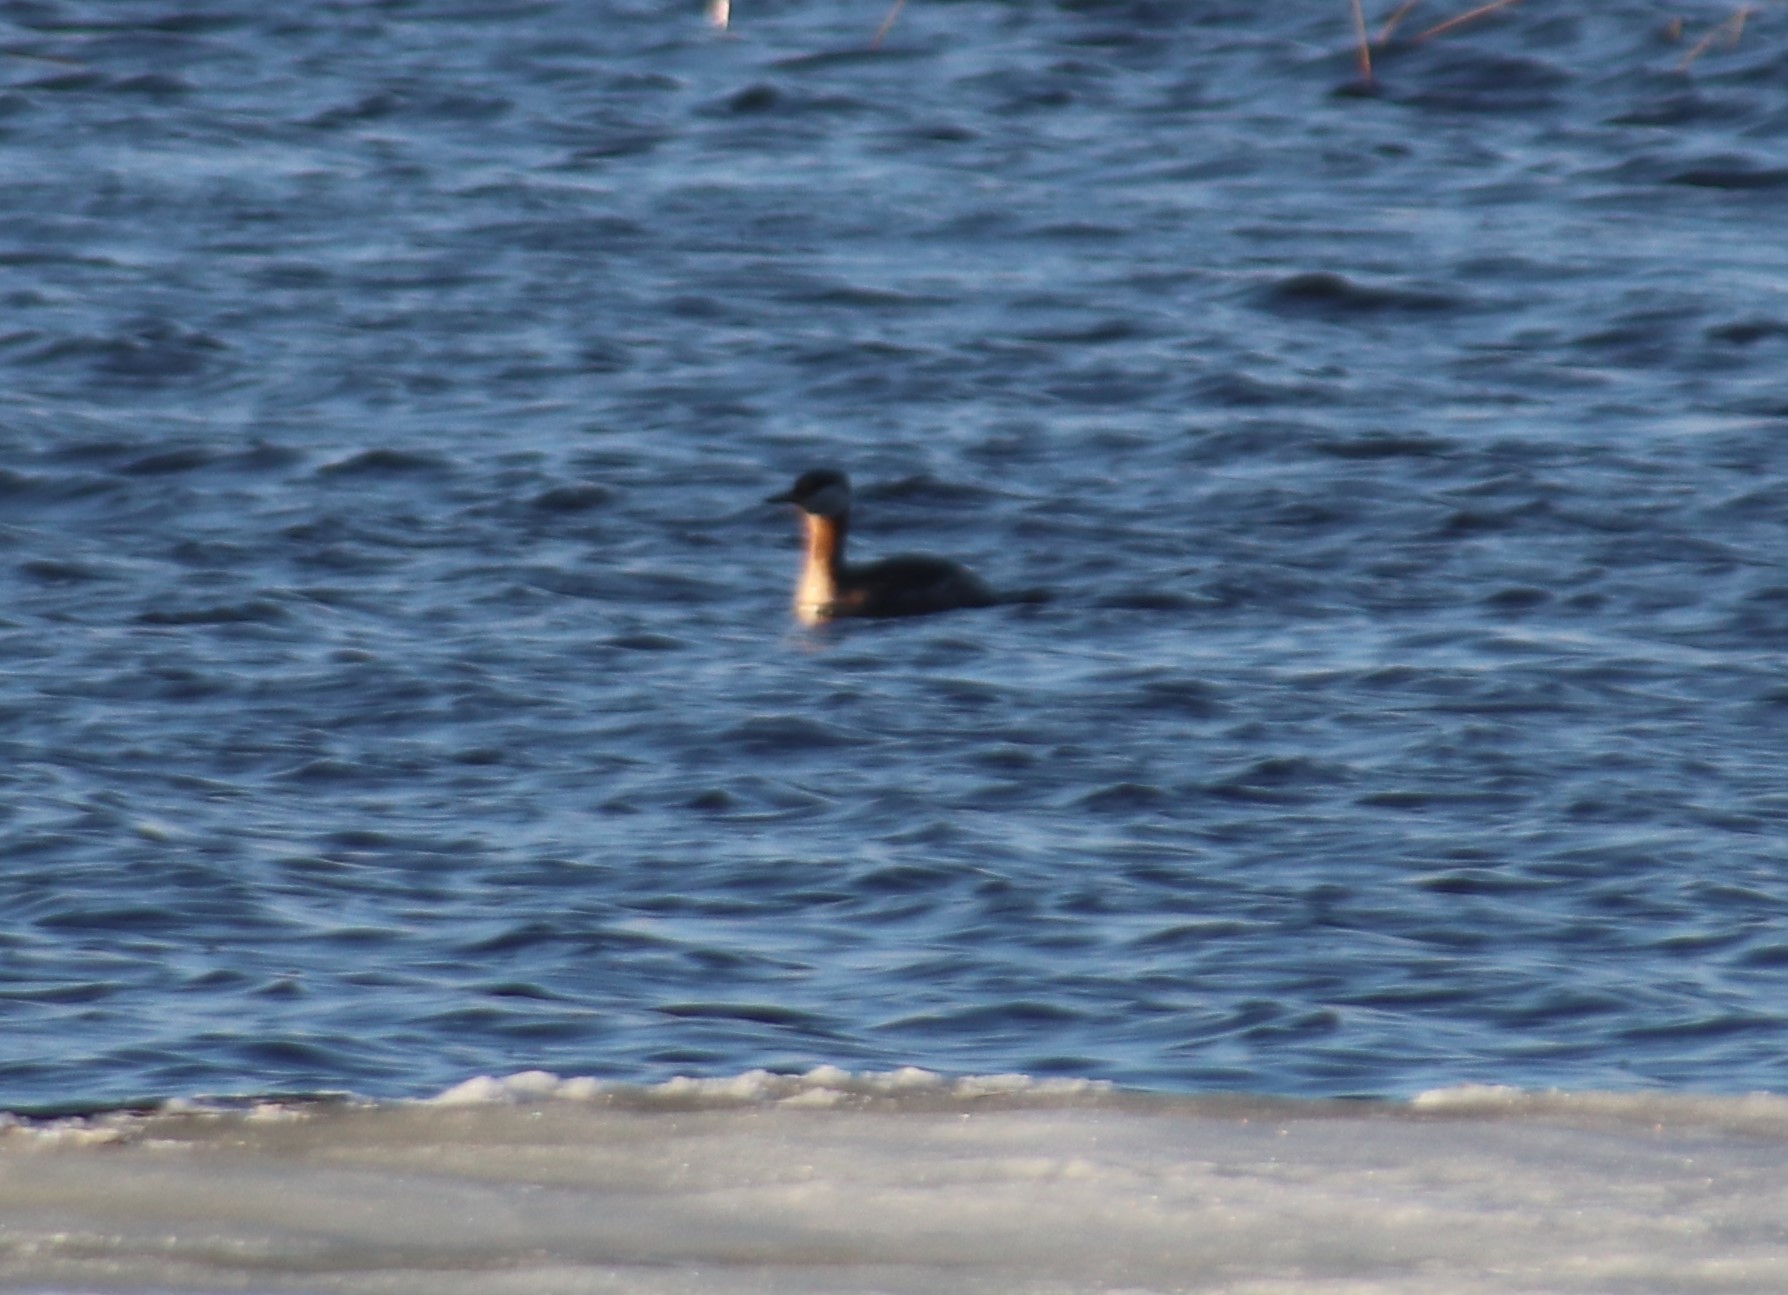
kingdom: Animalia
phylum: Chordata
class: Aves
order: Podicipediformes
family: Podicipedidae
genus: Podiceps
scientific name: Podiceps grisegena
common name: Red-necked grebe
